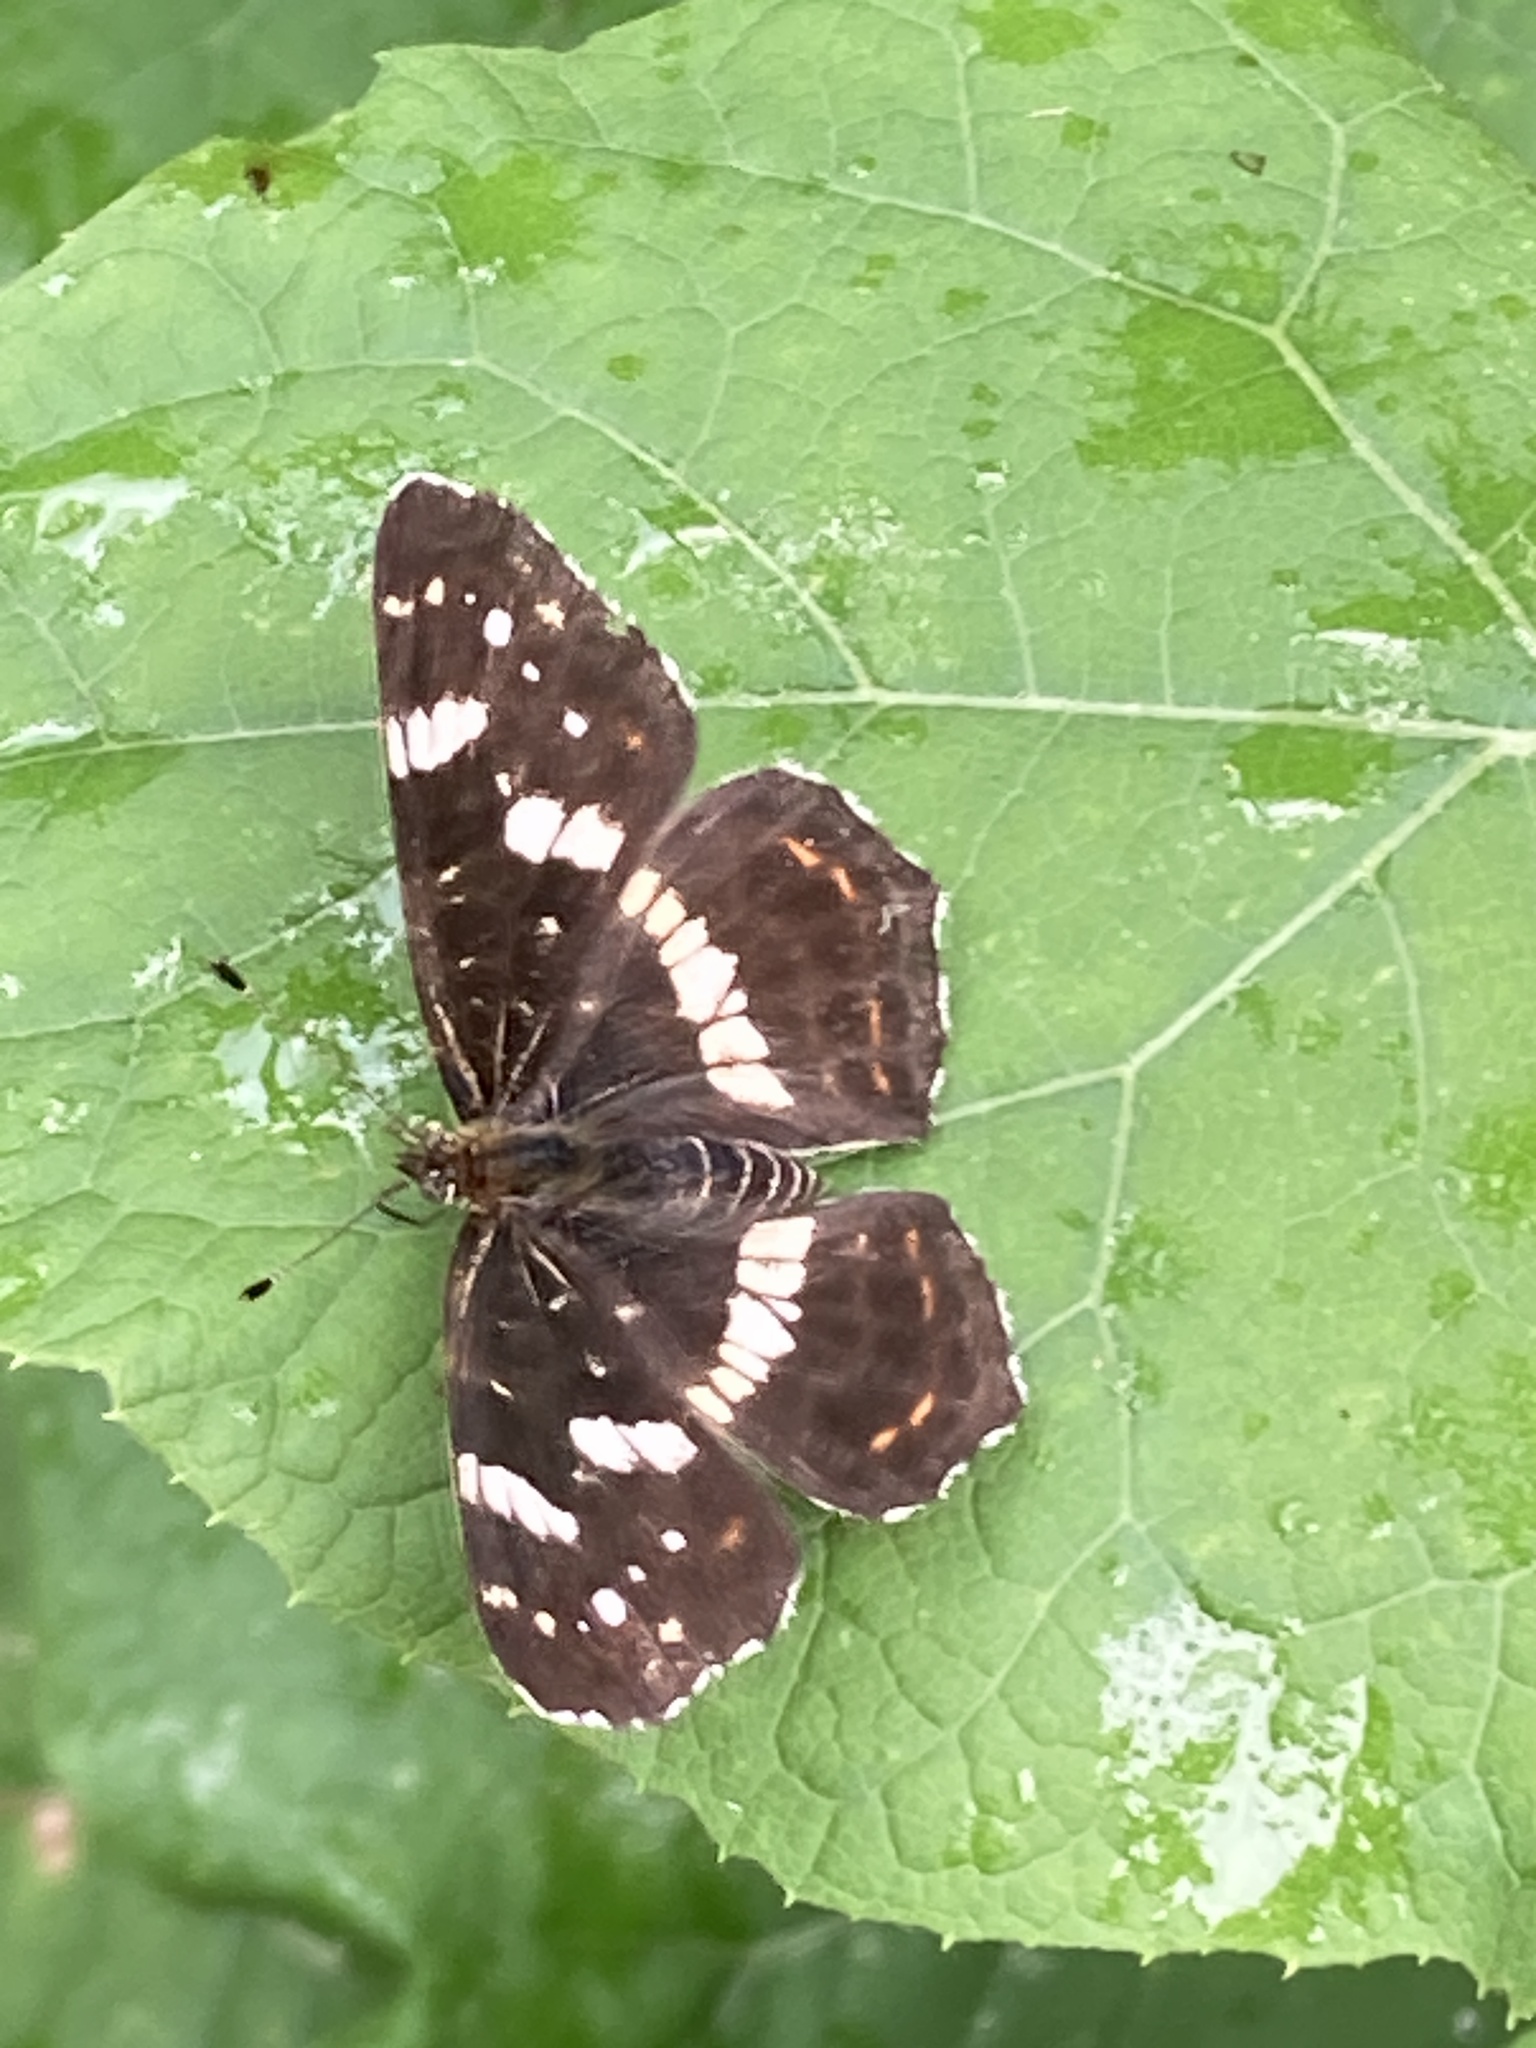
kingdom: Animalia
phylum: Arthropoda
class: Insecta
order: Lepidoptera
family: Nymphalidae
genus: Araschnia
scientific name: Araschnia levana
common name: Map butterfly
